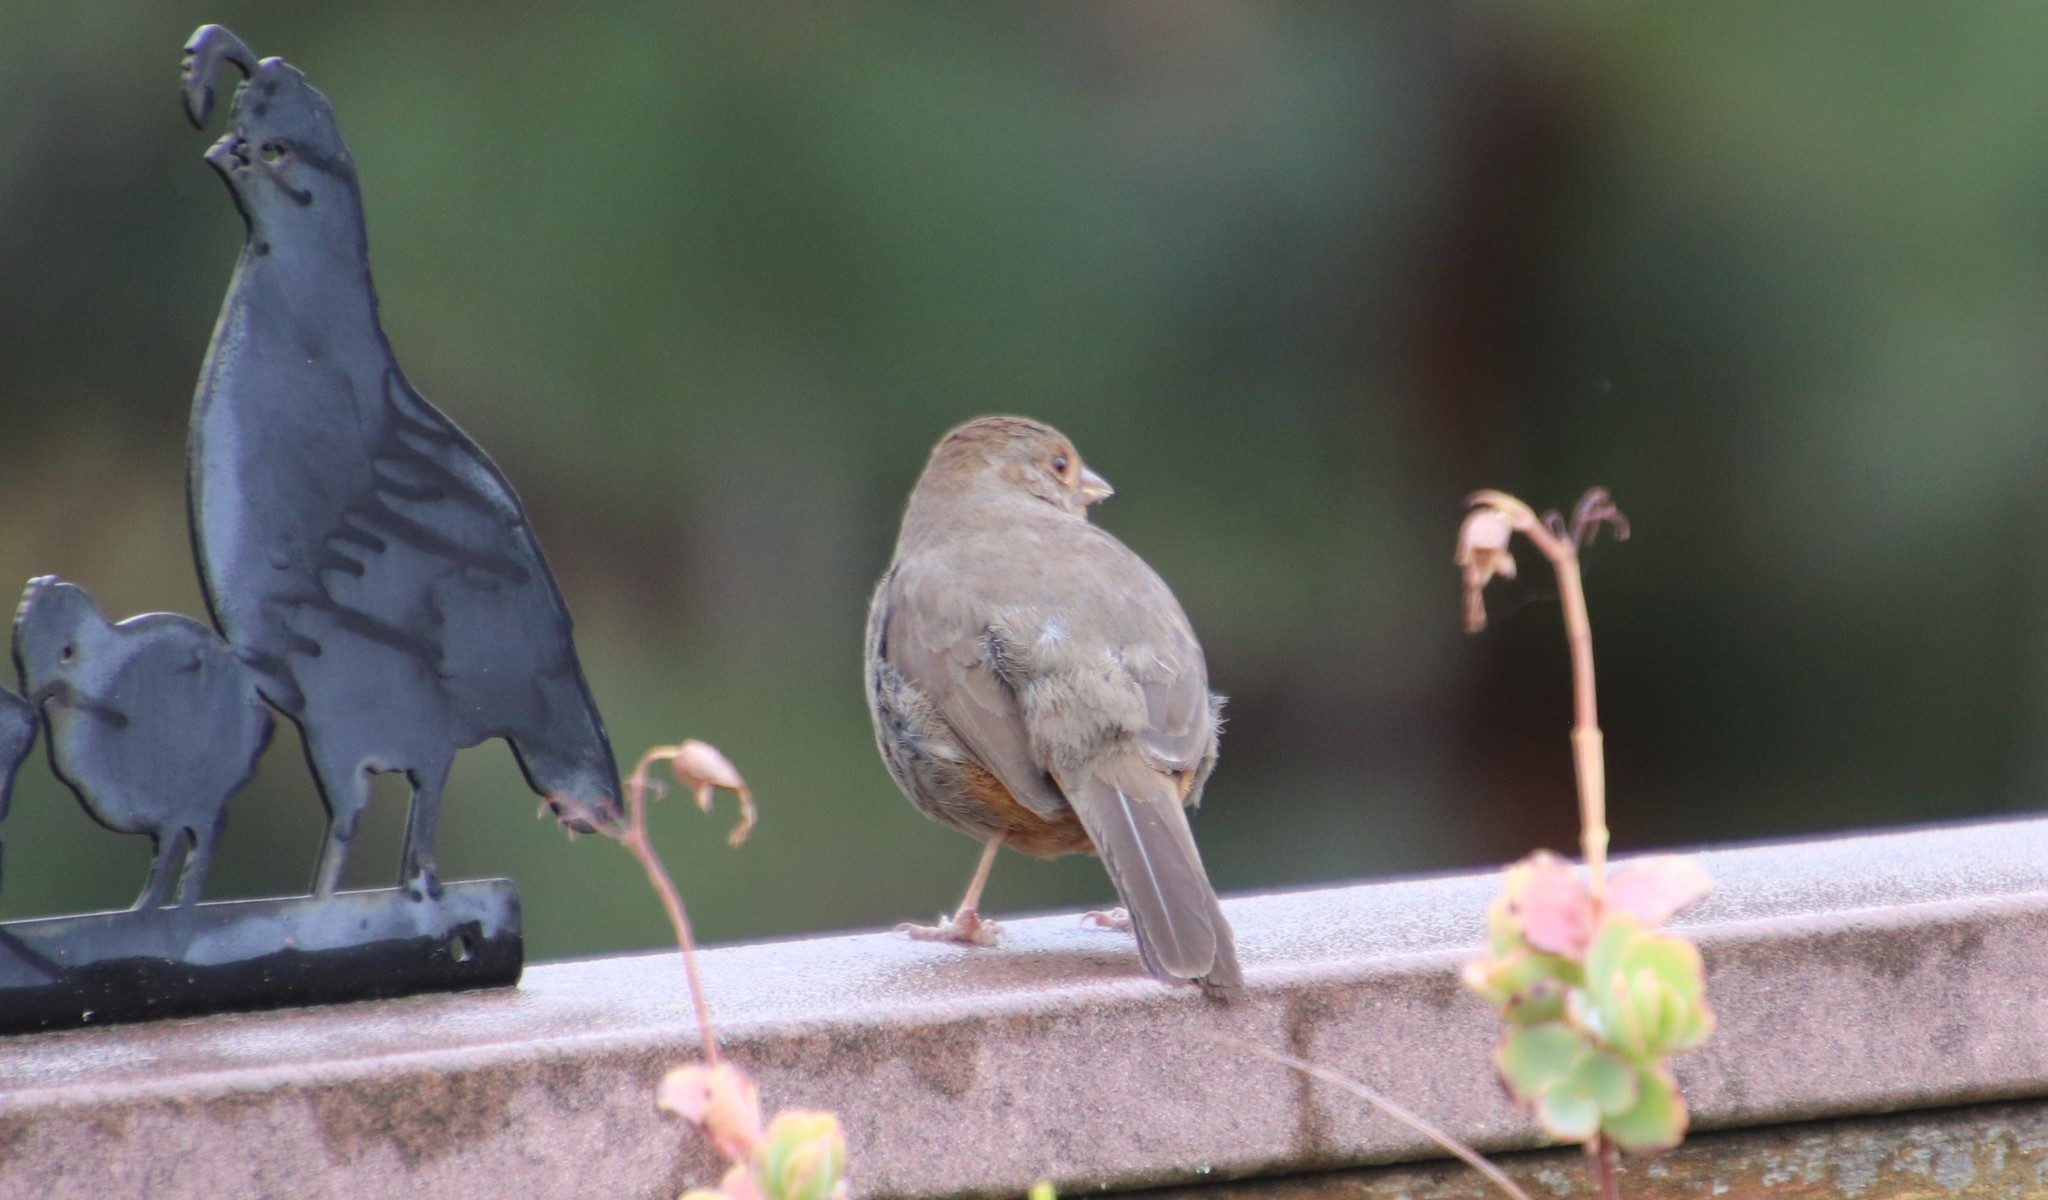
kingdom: Animalia
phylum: Chordata
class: Aves
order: Passeriformes
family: Passerellidae
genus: Melozone
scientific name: Melozone crissalis
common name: California towhee
